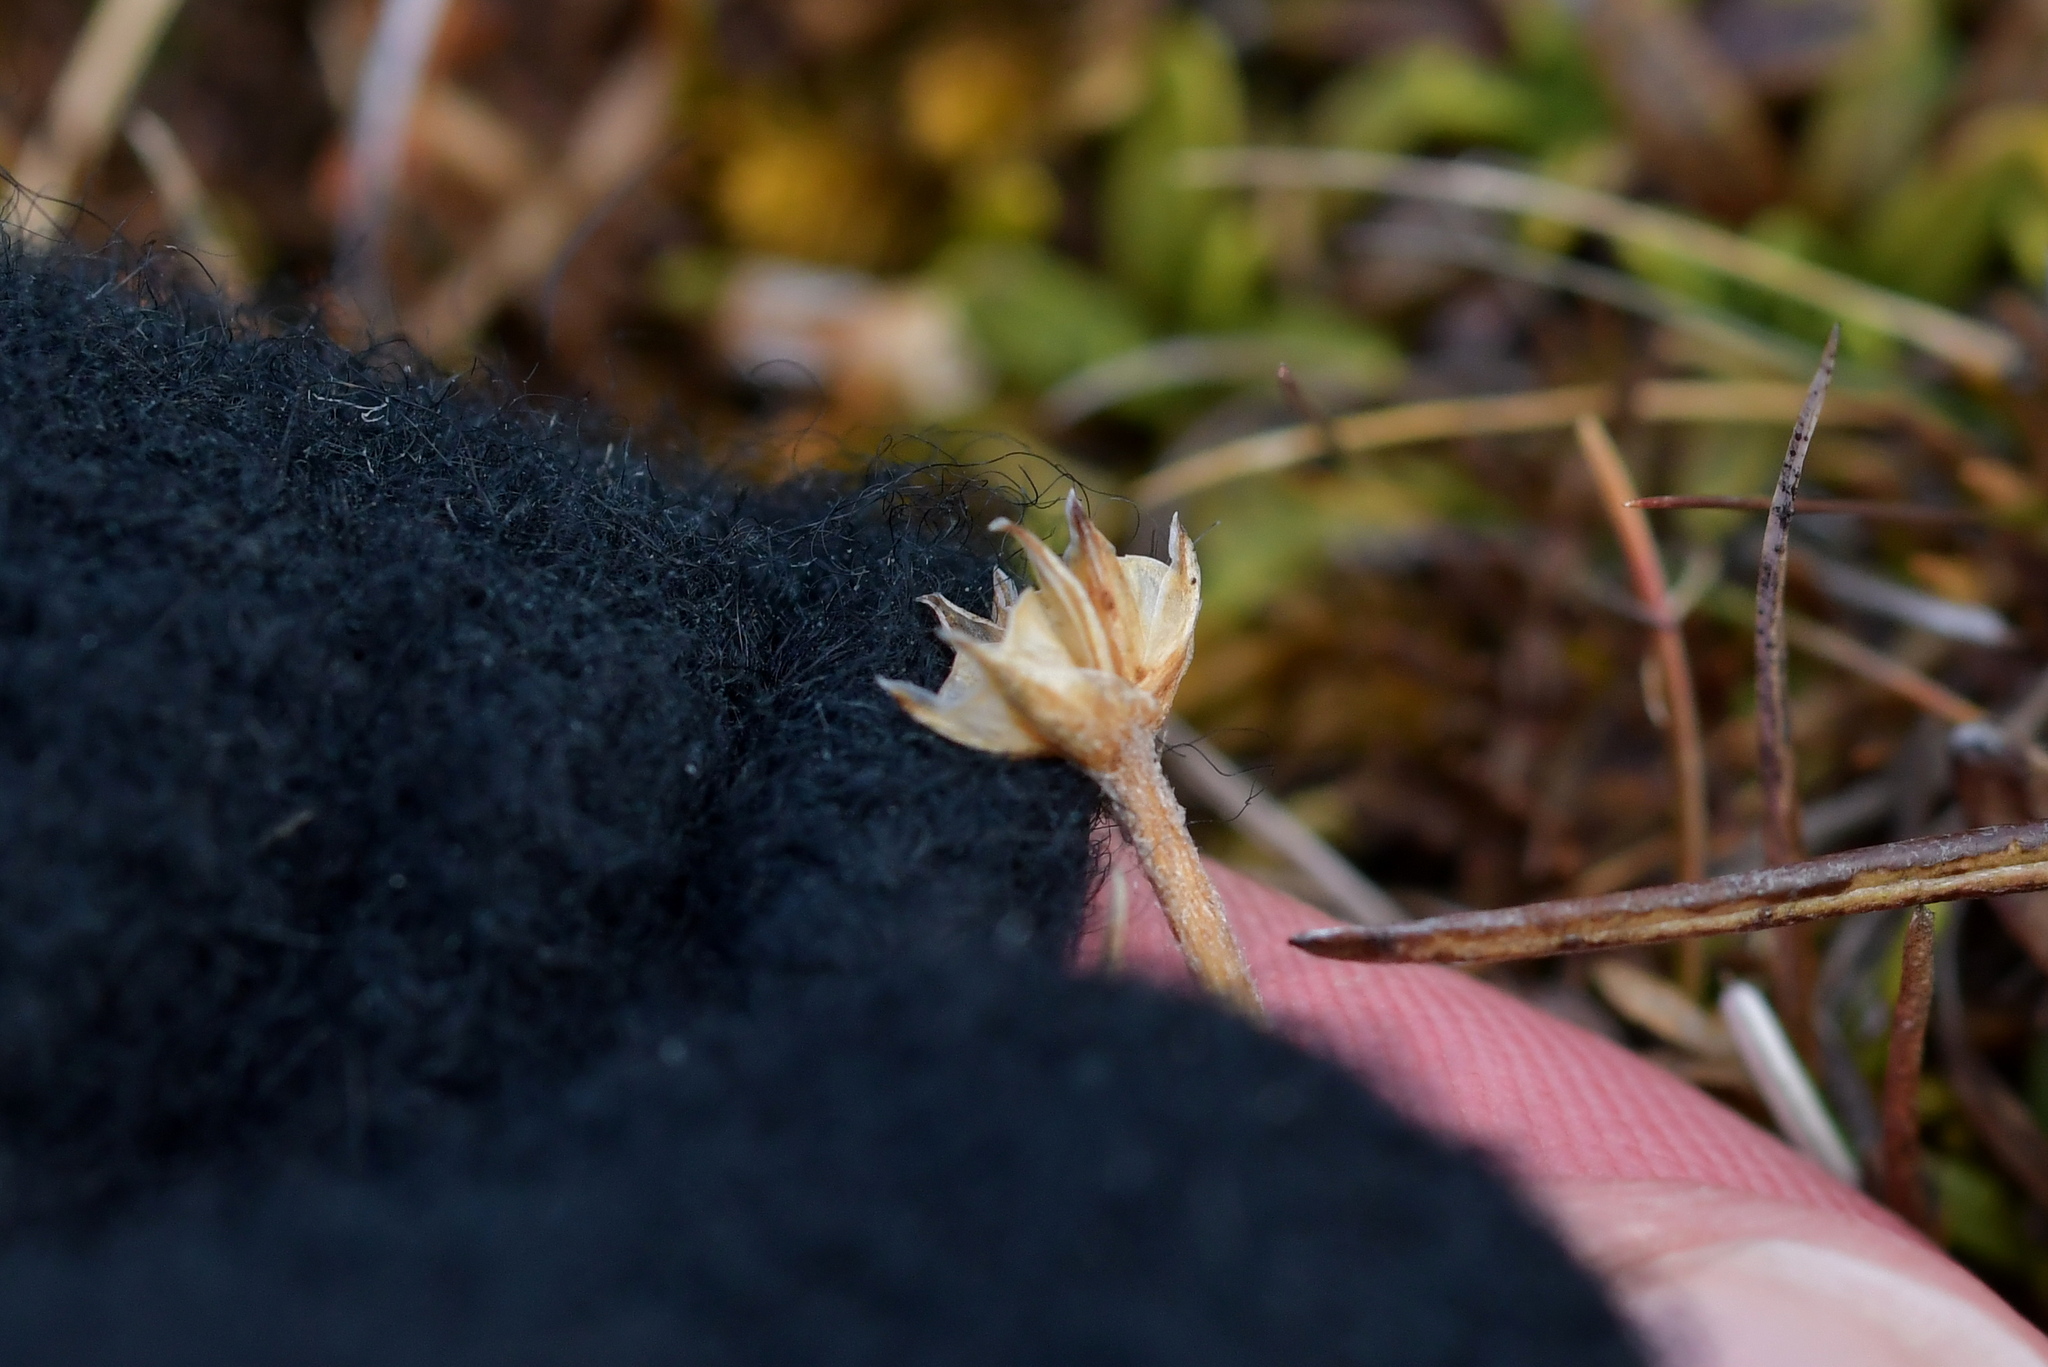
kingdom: Plantae
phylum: Tracheophyta
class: Magnoliopsida
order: Lamiales
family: Plantaginaceae
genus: Plantago
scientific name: Plantago unibracteata
